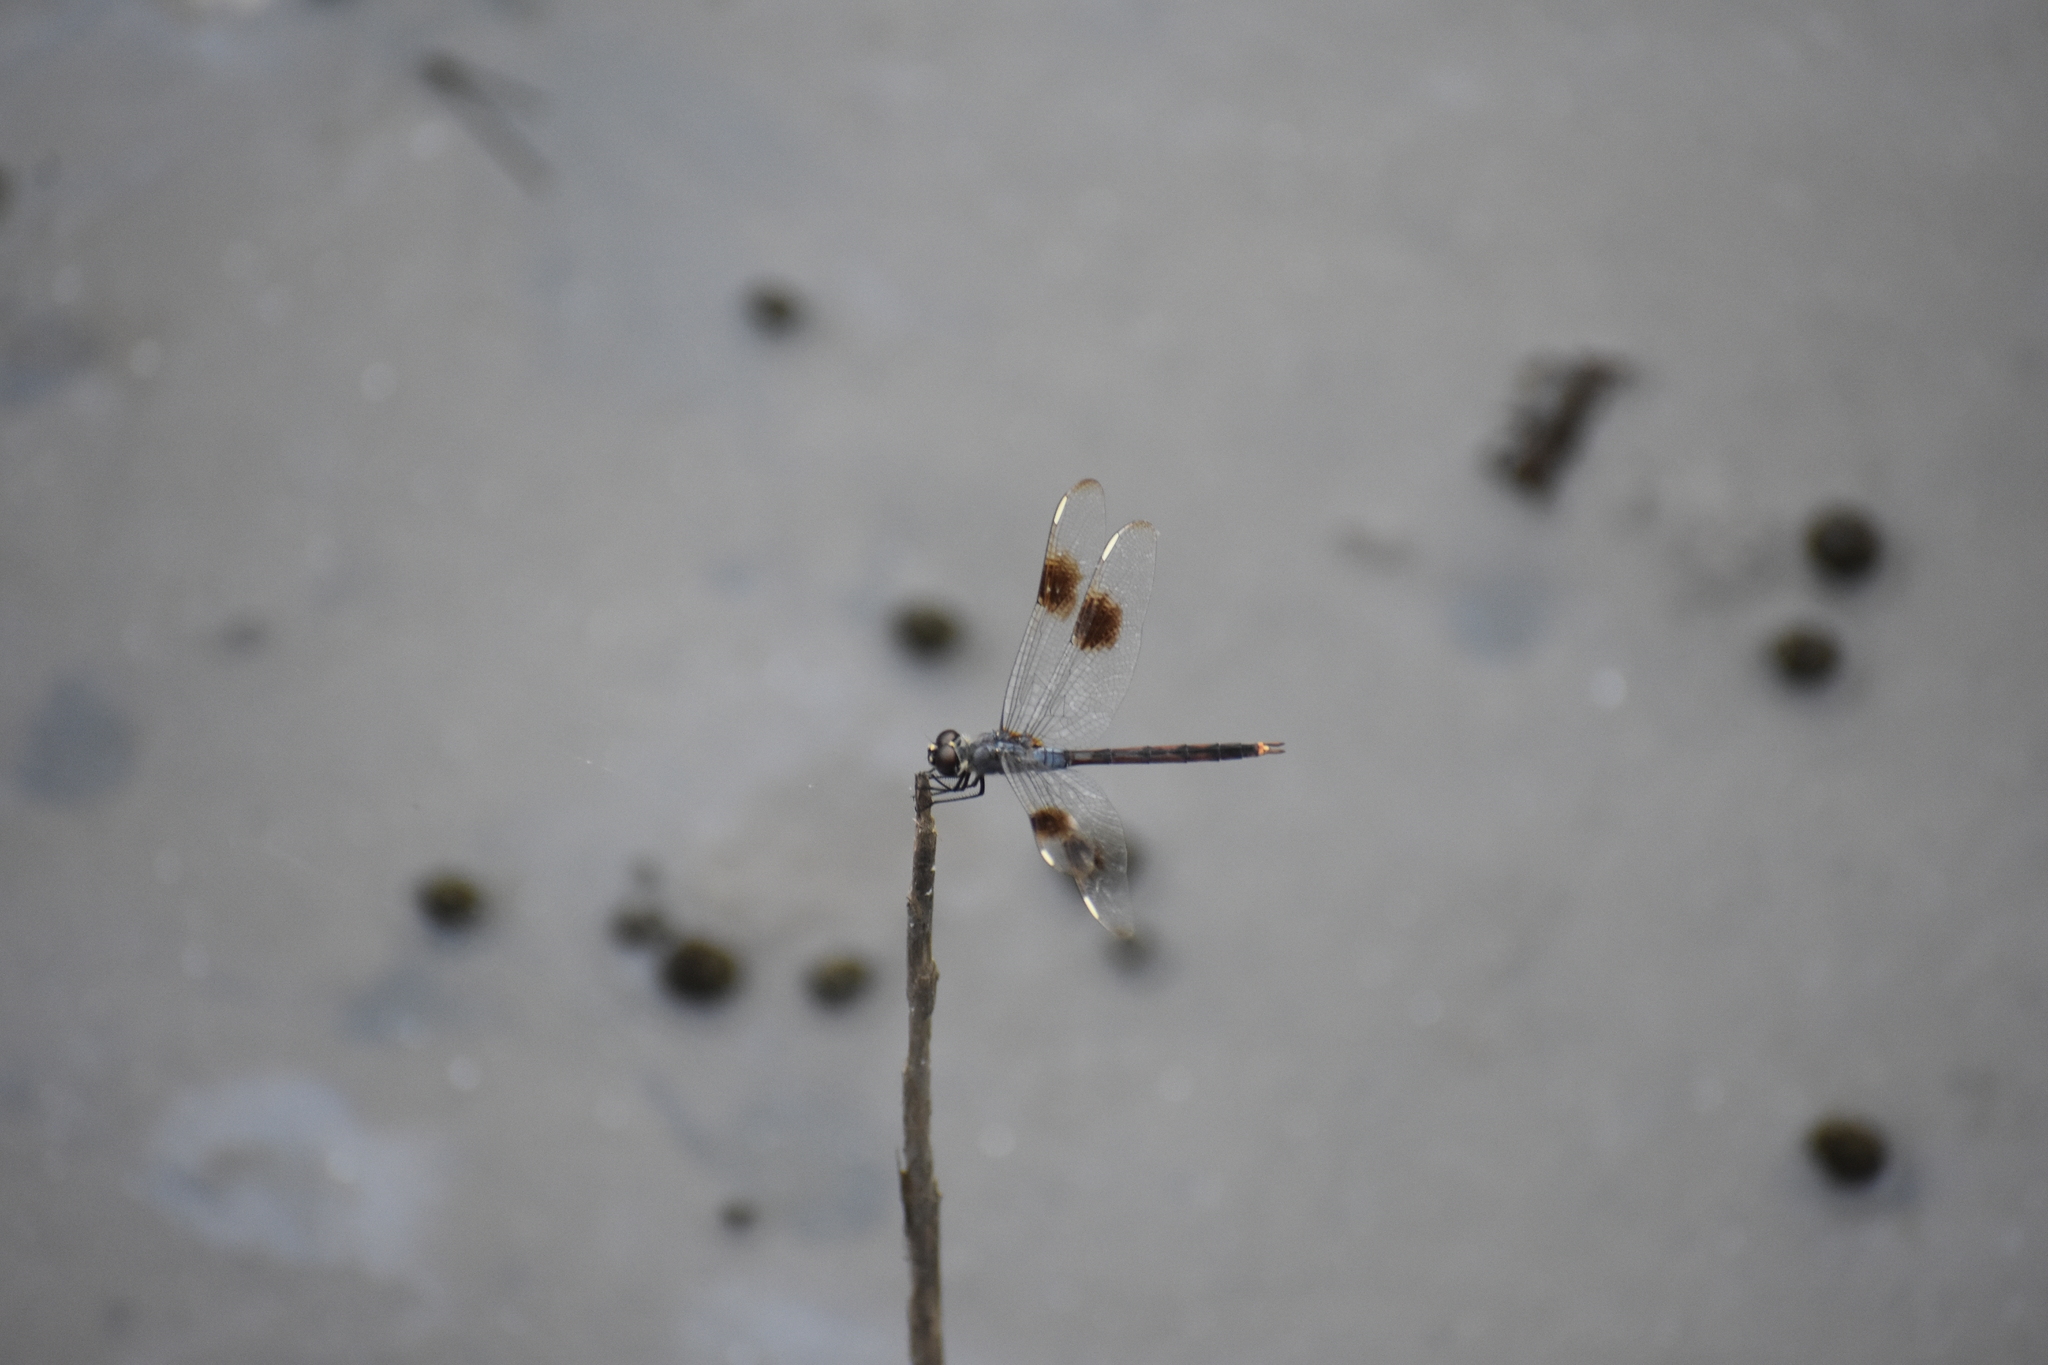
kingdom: Animalia
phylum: Arthropoda
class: Insecta
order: Odonata
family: Libellulidae
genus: Brachymesia
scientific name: Brachymesia gravida
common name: Four-spotted pennant
